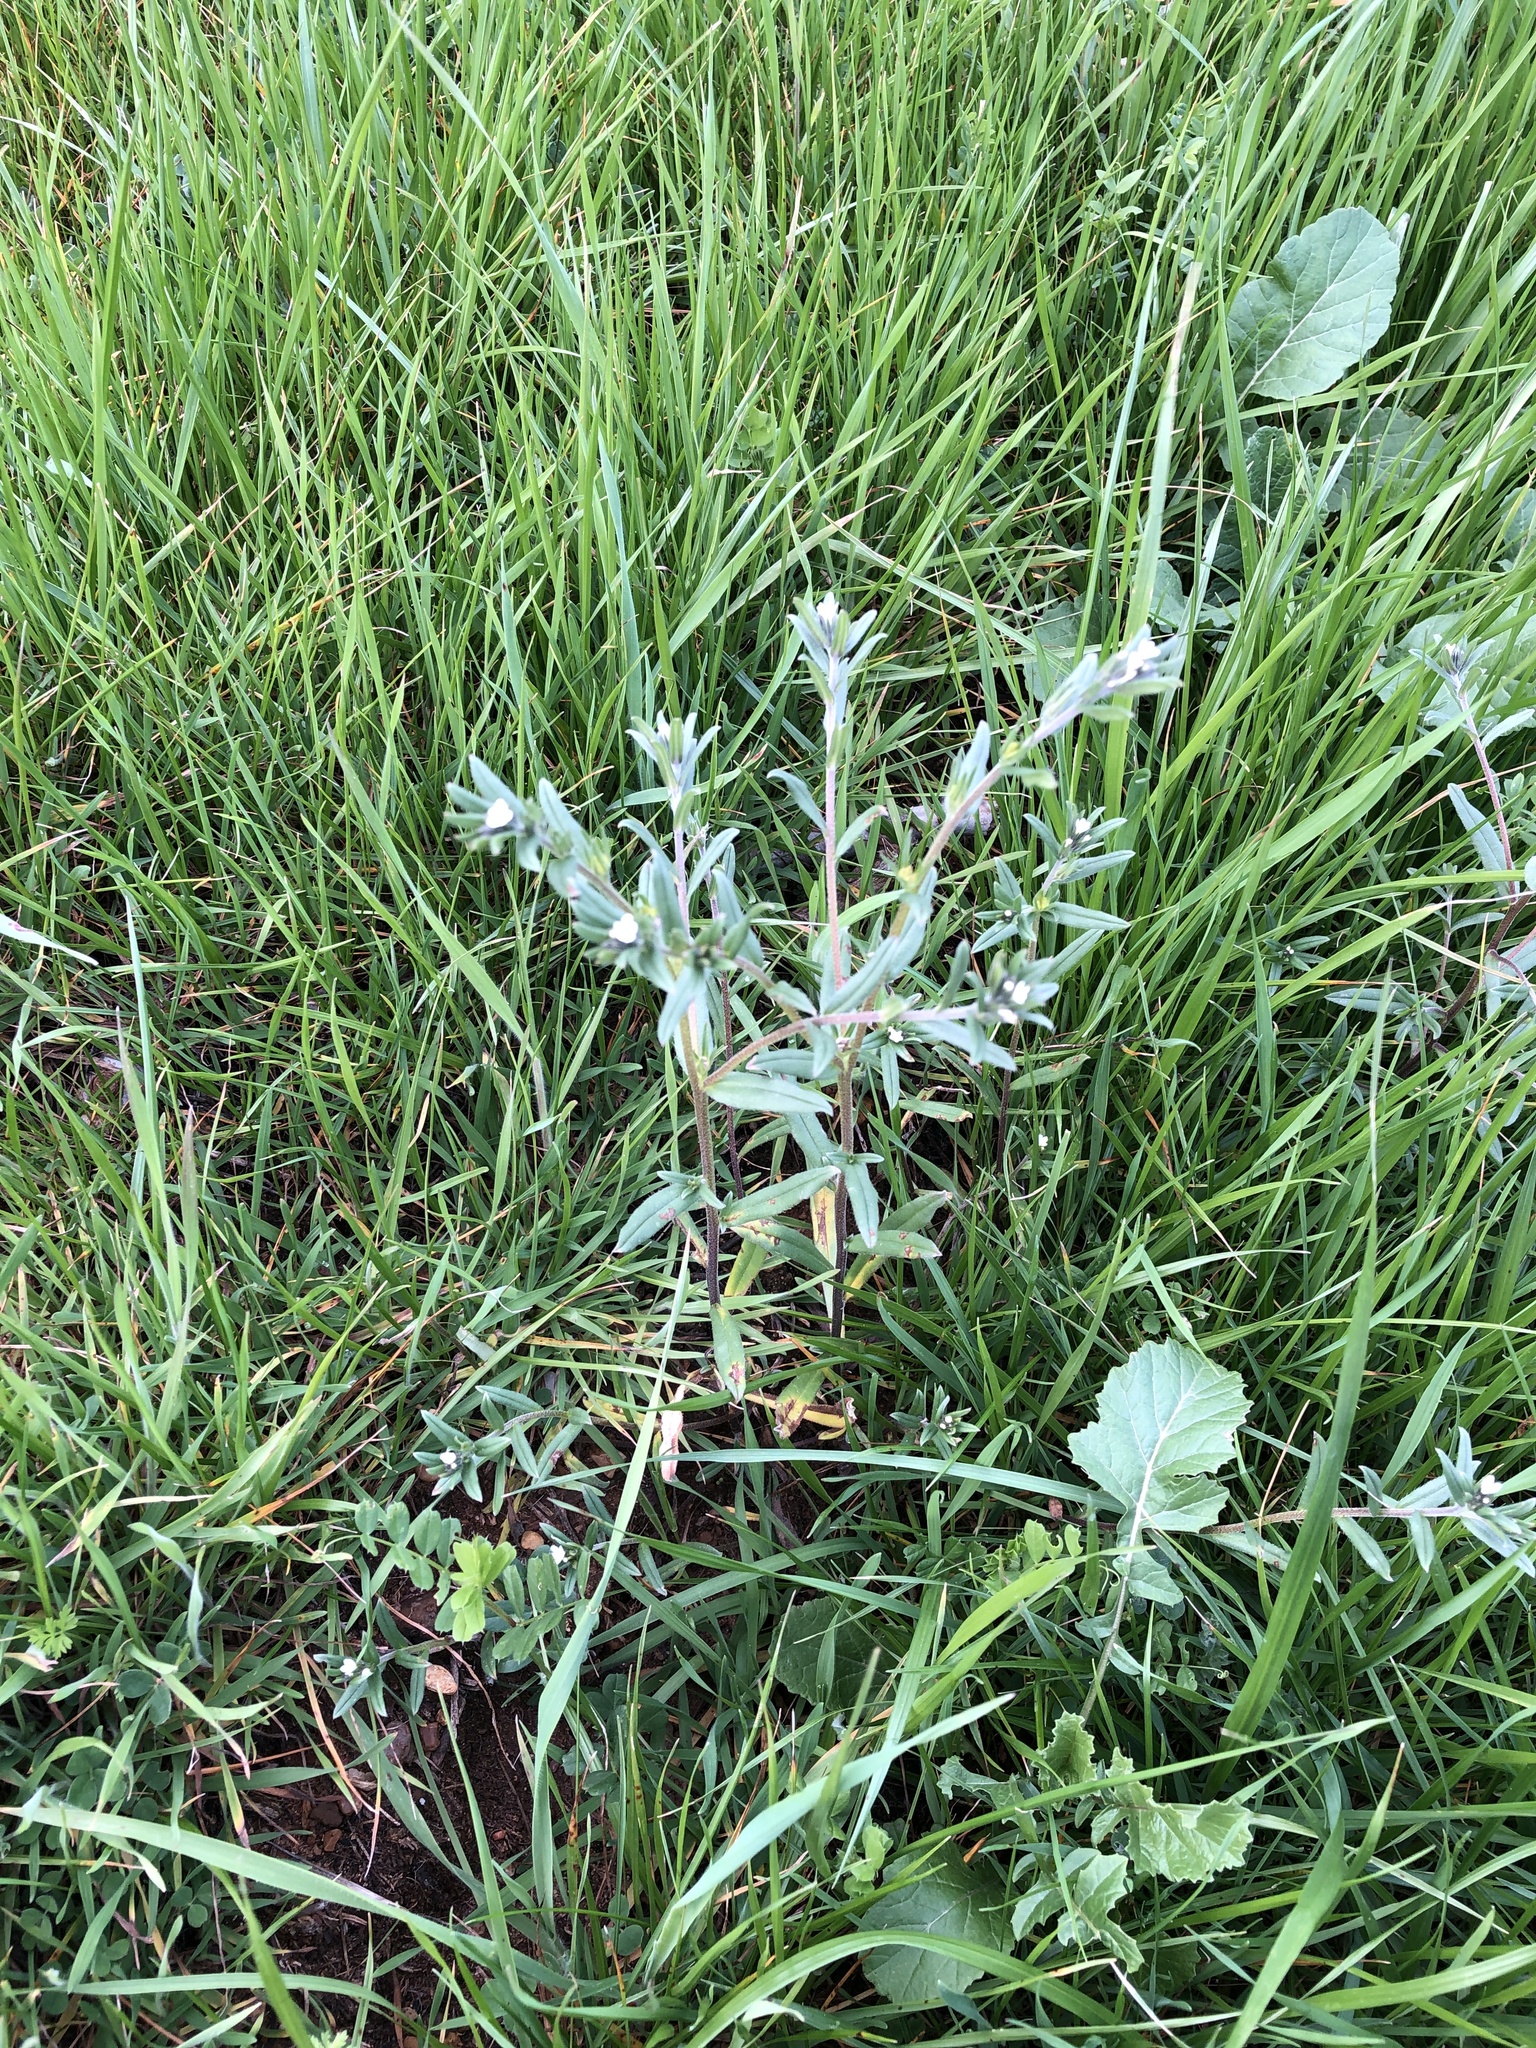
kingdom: Plantae
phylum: Tracheophyta
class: Magnoliopsida
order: Boraginales
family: Boraginaceae
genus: Buglossoides
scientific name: Buglossoides arvensis
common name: Corn gromwell
